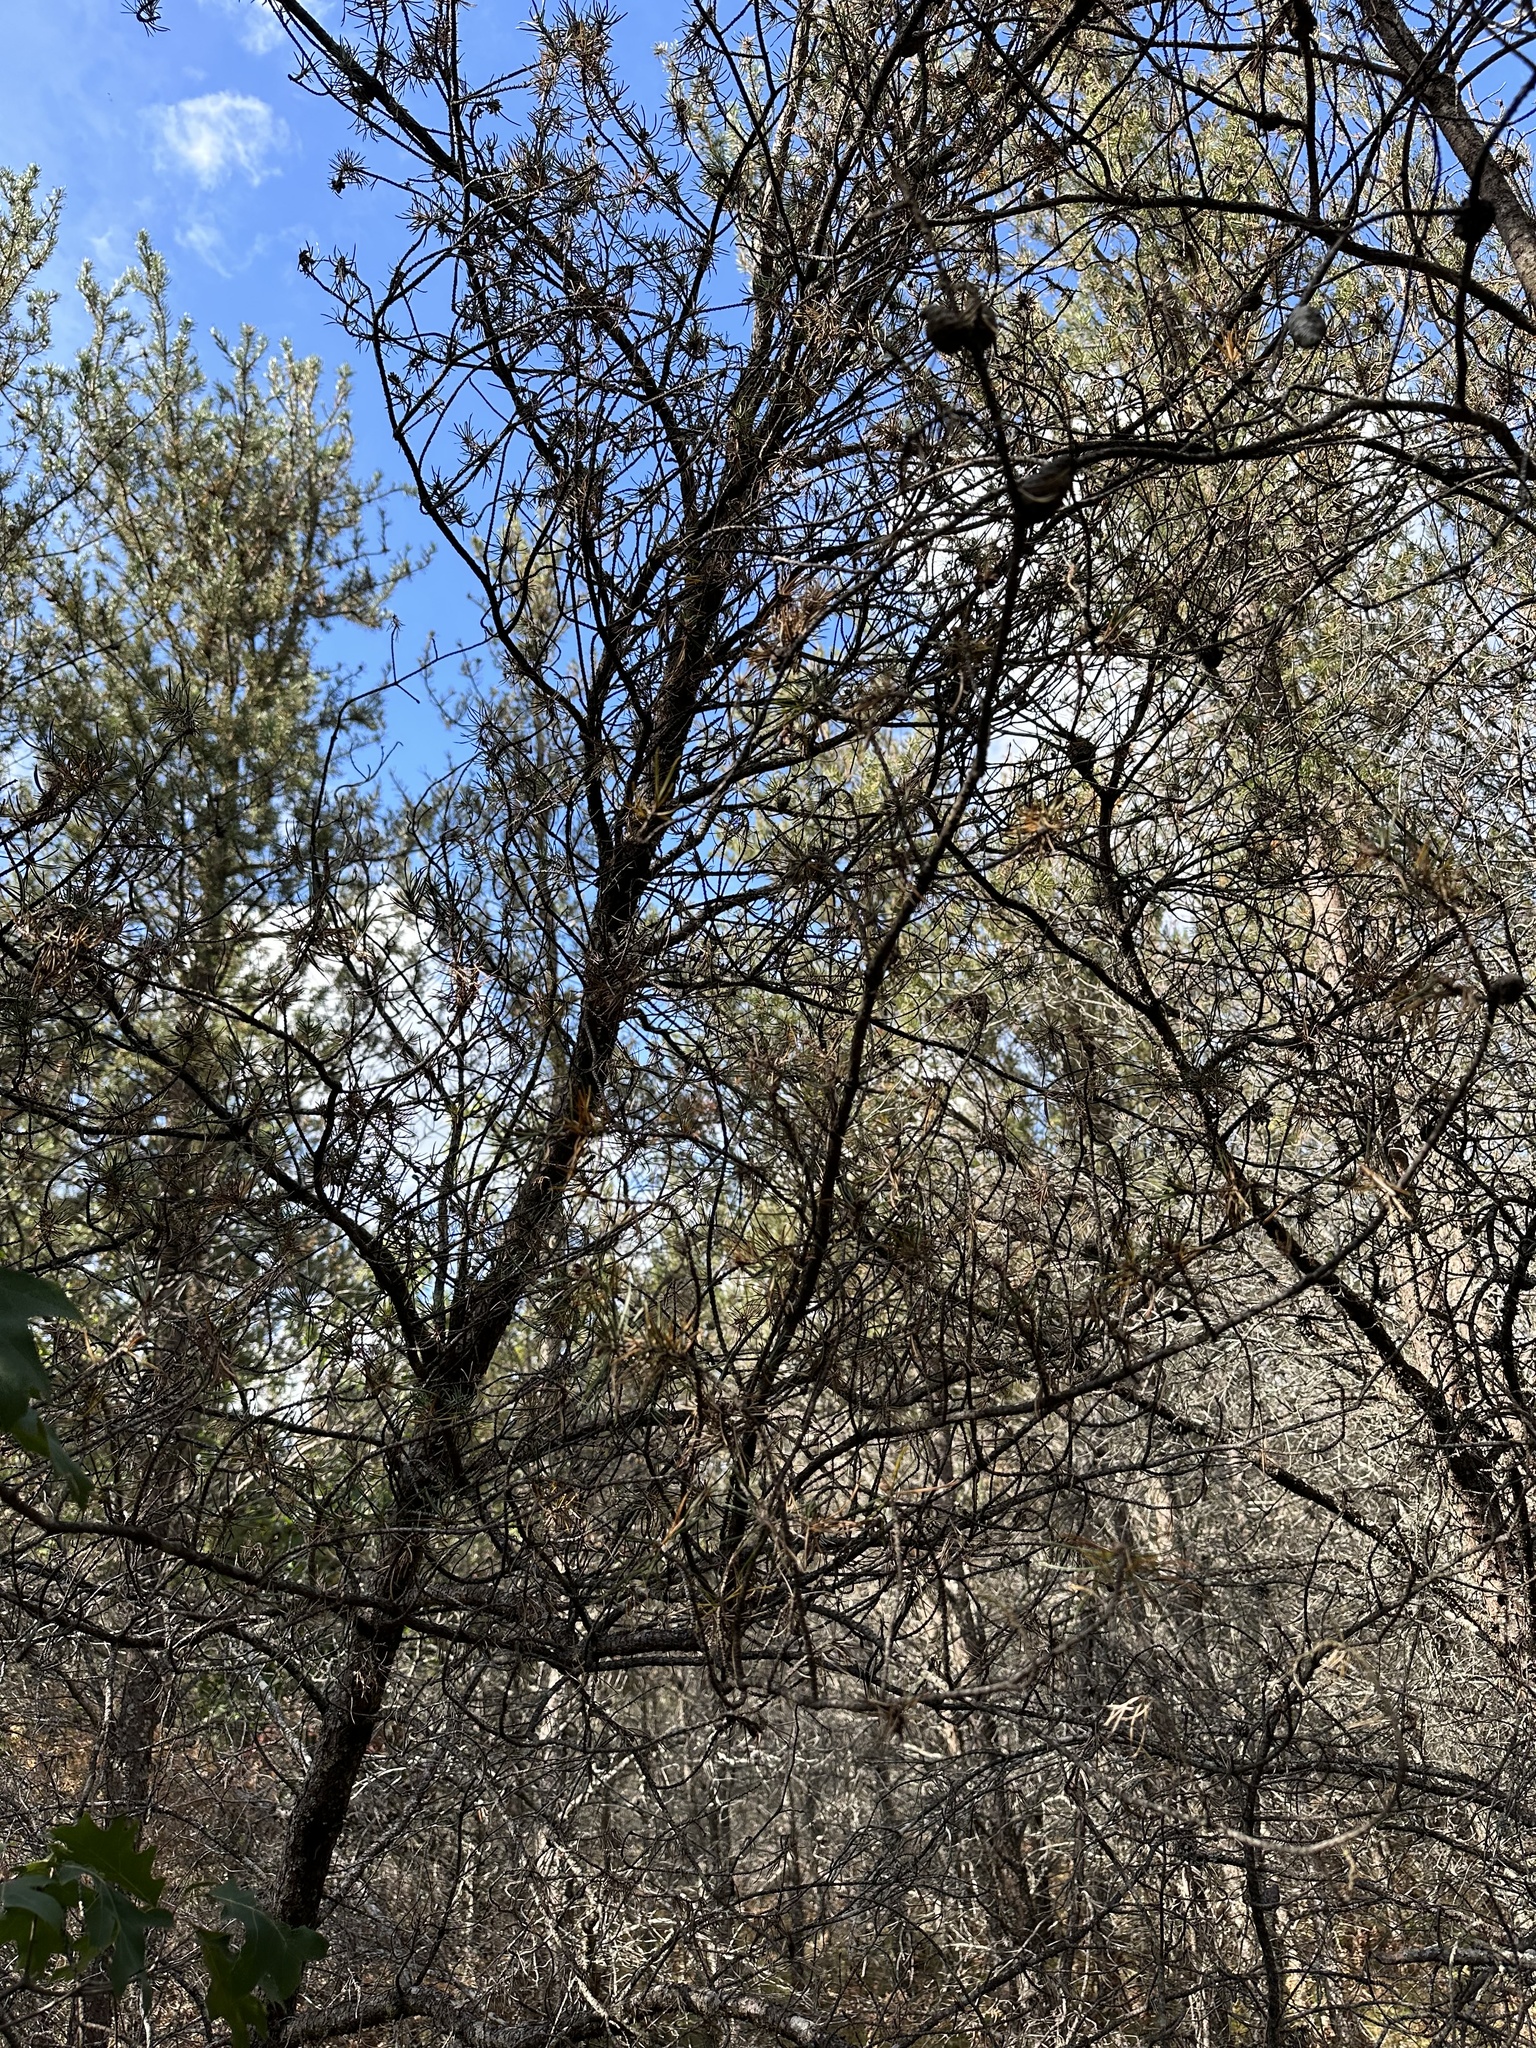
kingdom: Plantae
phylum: Tracheophyta
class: Pinopsida
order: Pinales
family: Pinaceae
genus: Pinus
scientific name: Pinus banksiana
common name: Jack pine
